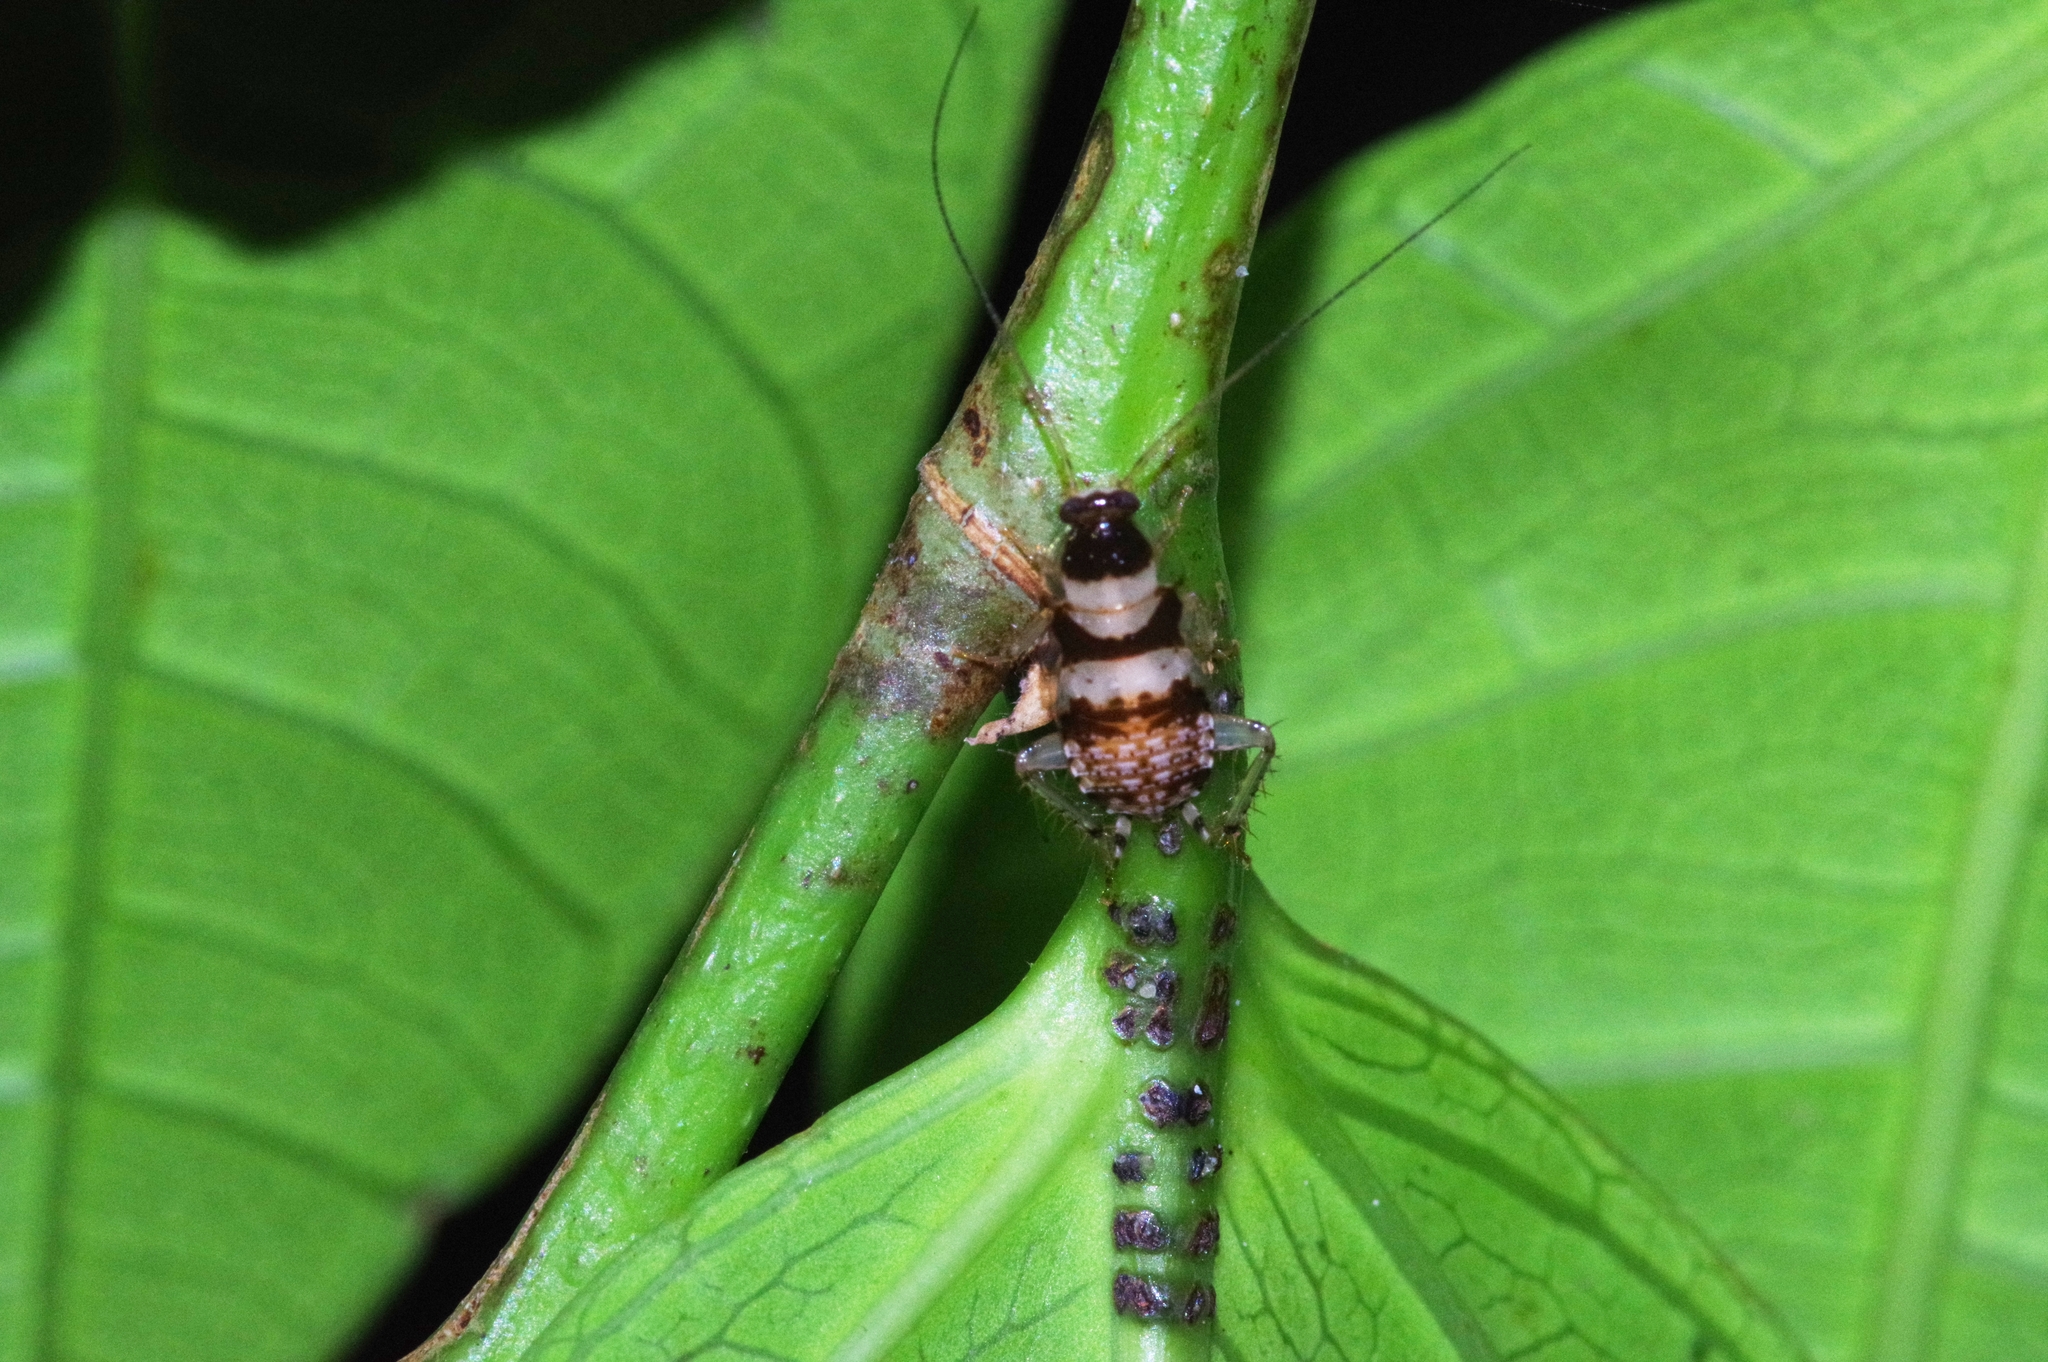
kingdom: Animalia
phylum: Arthropoda
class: Insecta
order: Blattodea
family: Ectobiidae
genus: Balta
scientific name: Balta notulata
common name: Cockroach
